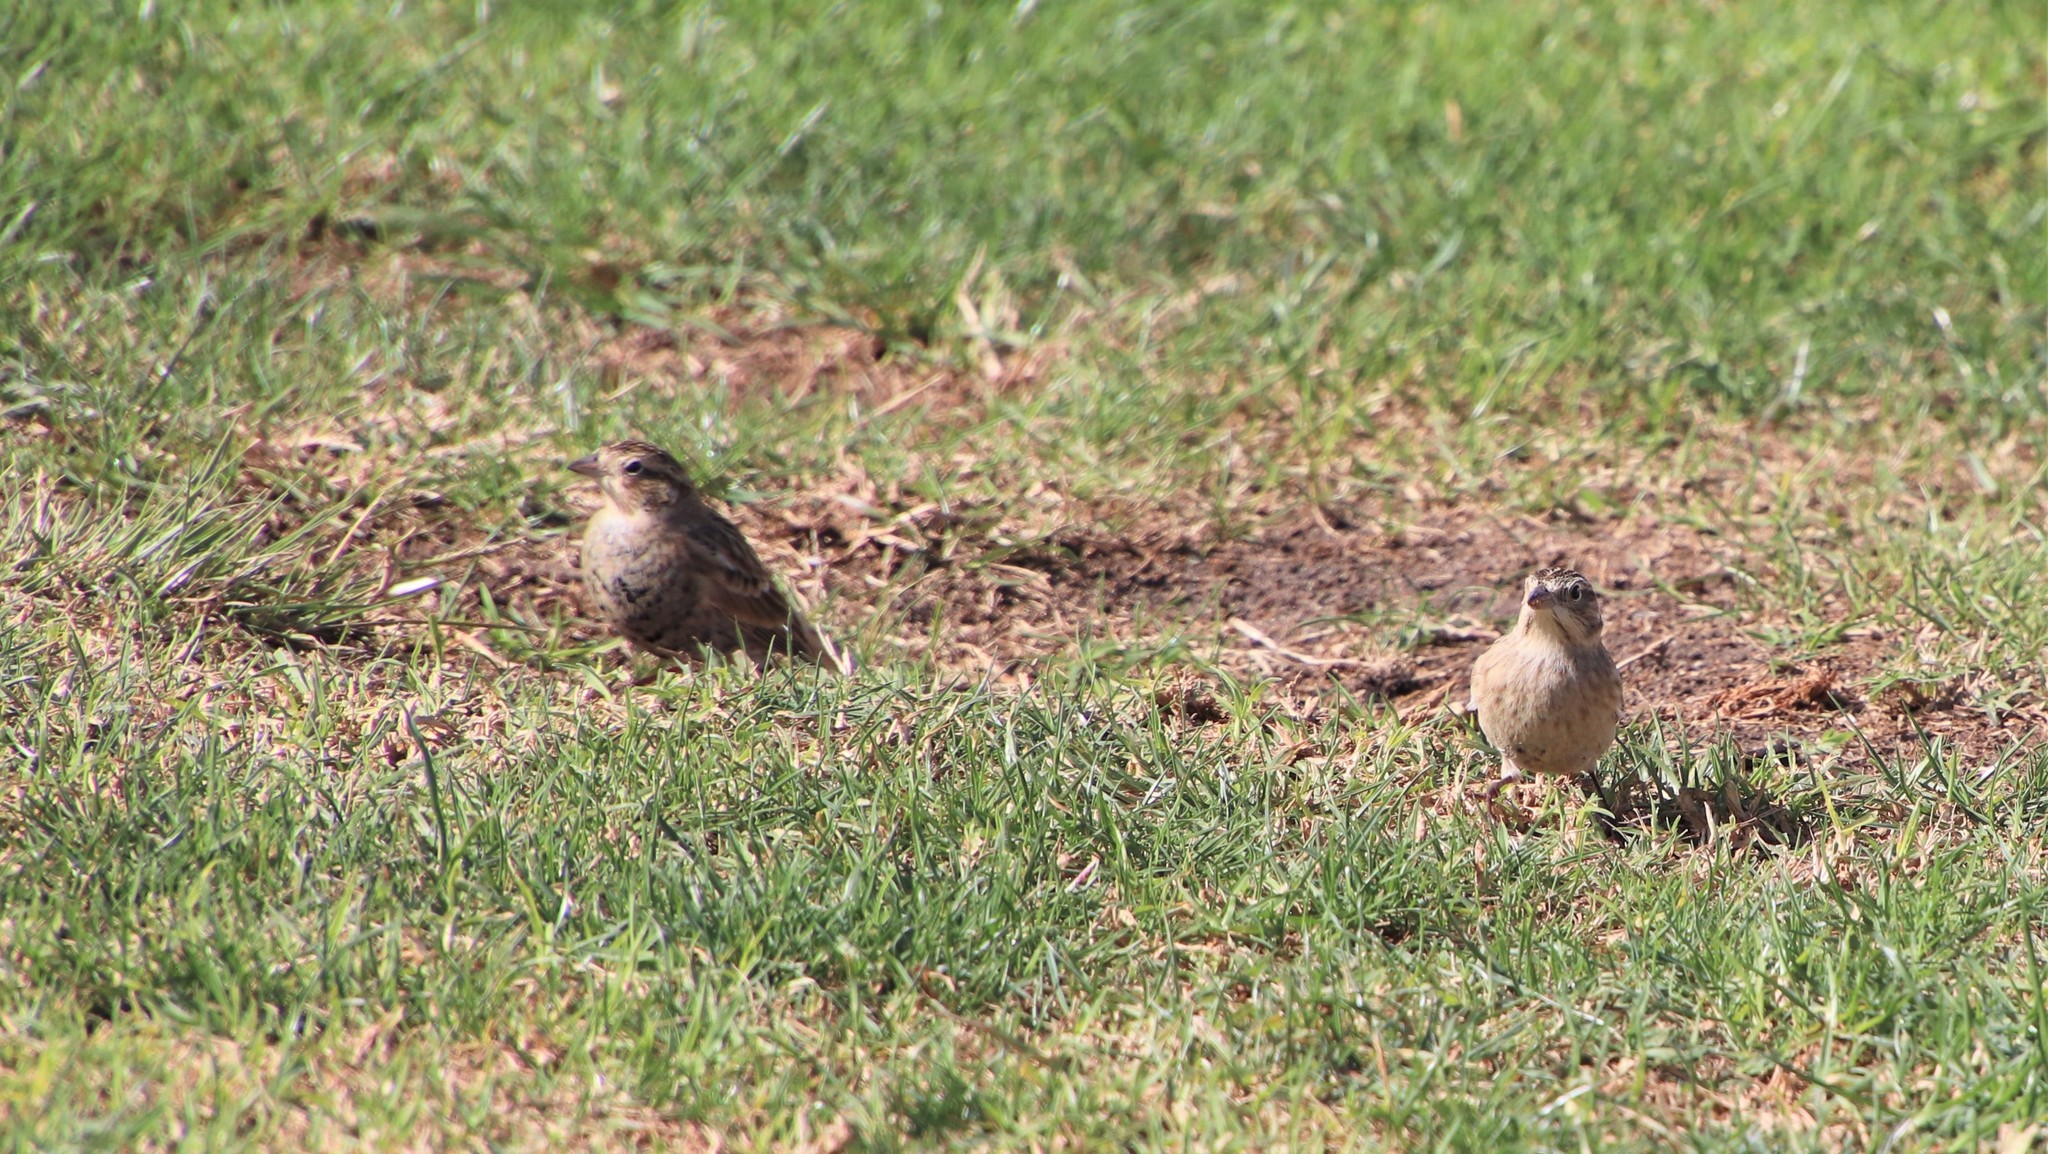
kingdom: Animalia
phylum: Chordata
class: Aves
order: Passeriformes
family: Calcariidae
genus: Calcarius
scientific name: Calcarius ornatus
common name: Chestnut-collared longspur
